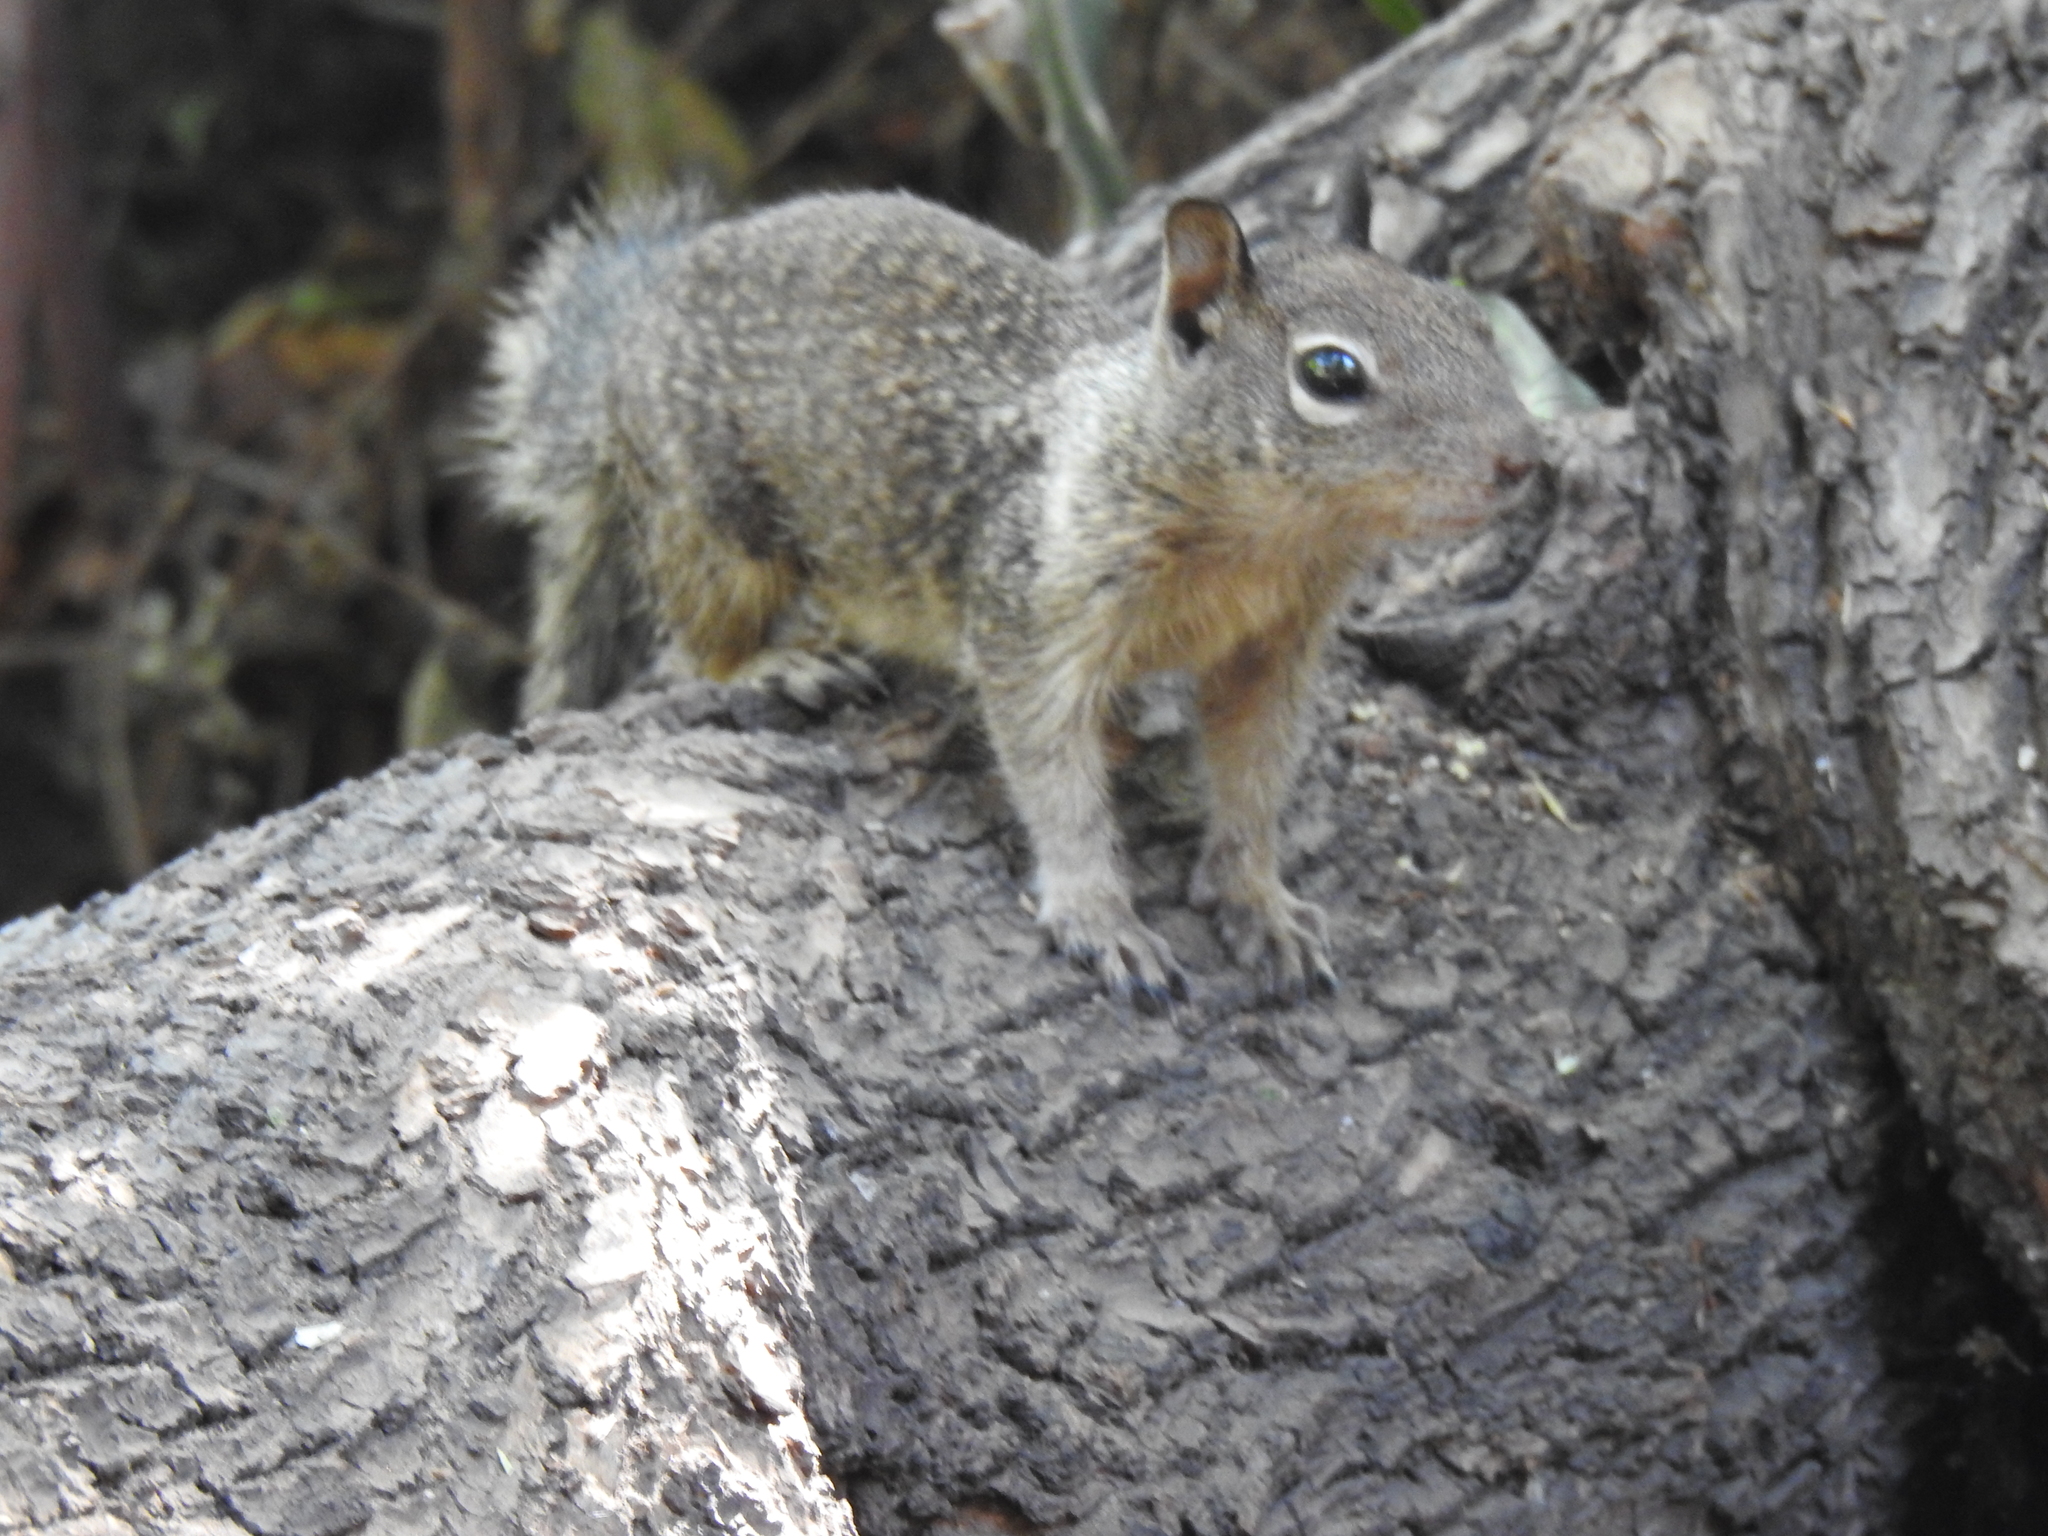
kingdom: Animalia
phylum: Chordata
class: Mammalia
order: Rodentia
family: Sciuridae
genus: Otospermophilus
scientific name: Otospermophilus beecheyi
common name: California ground squirrel
